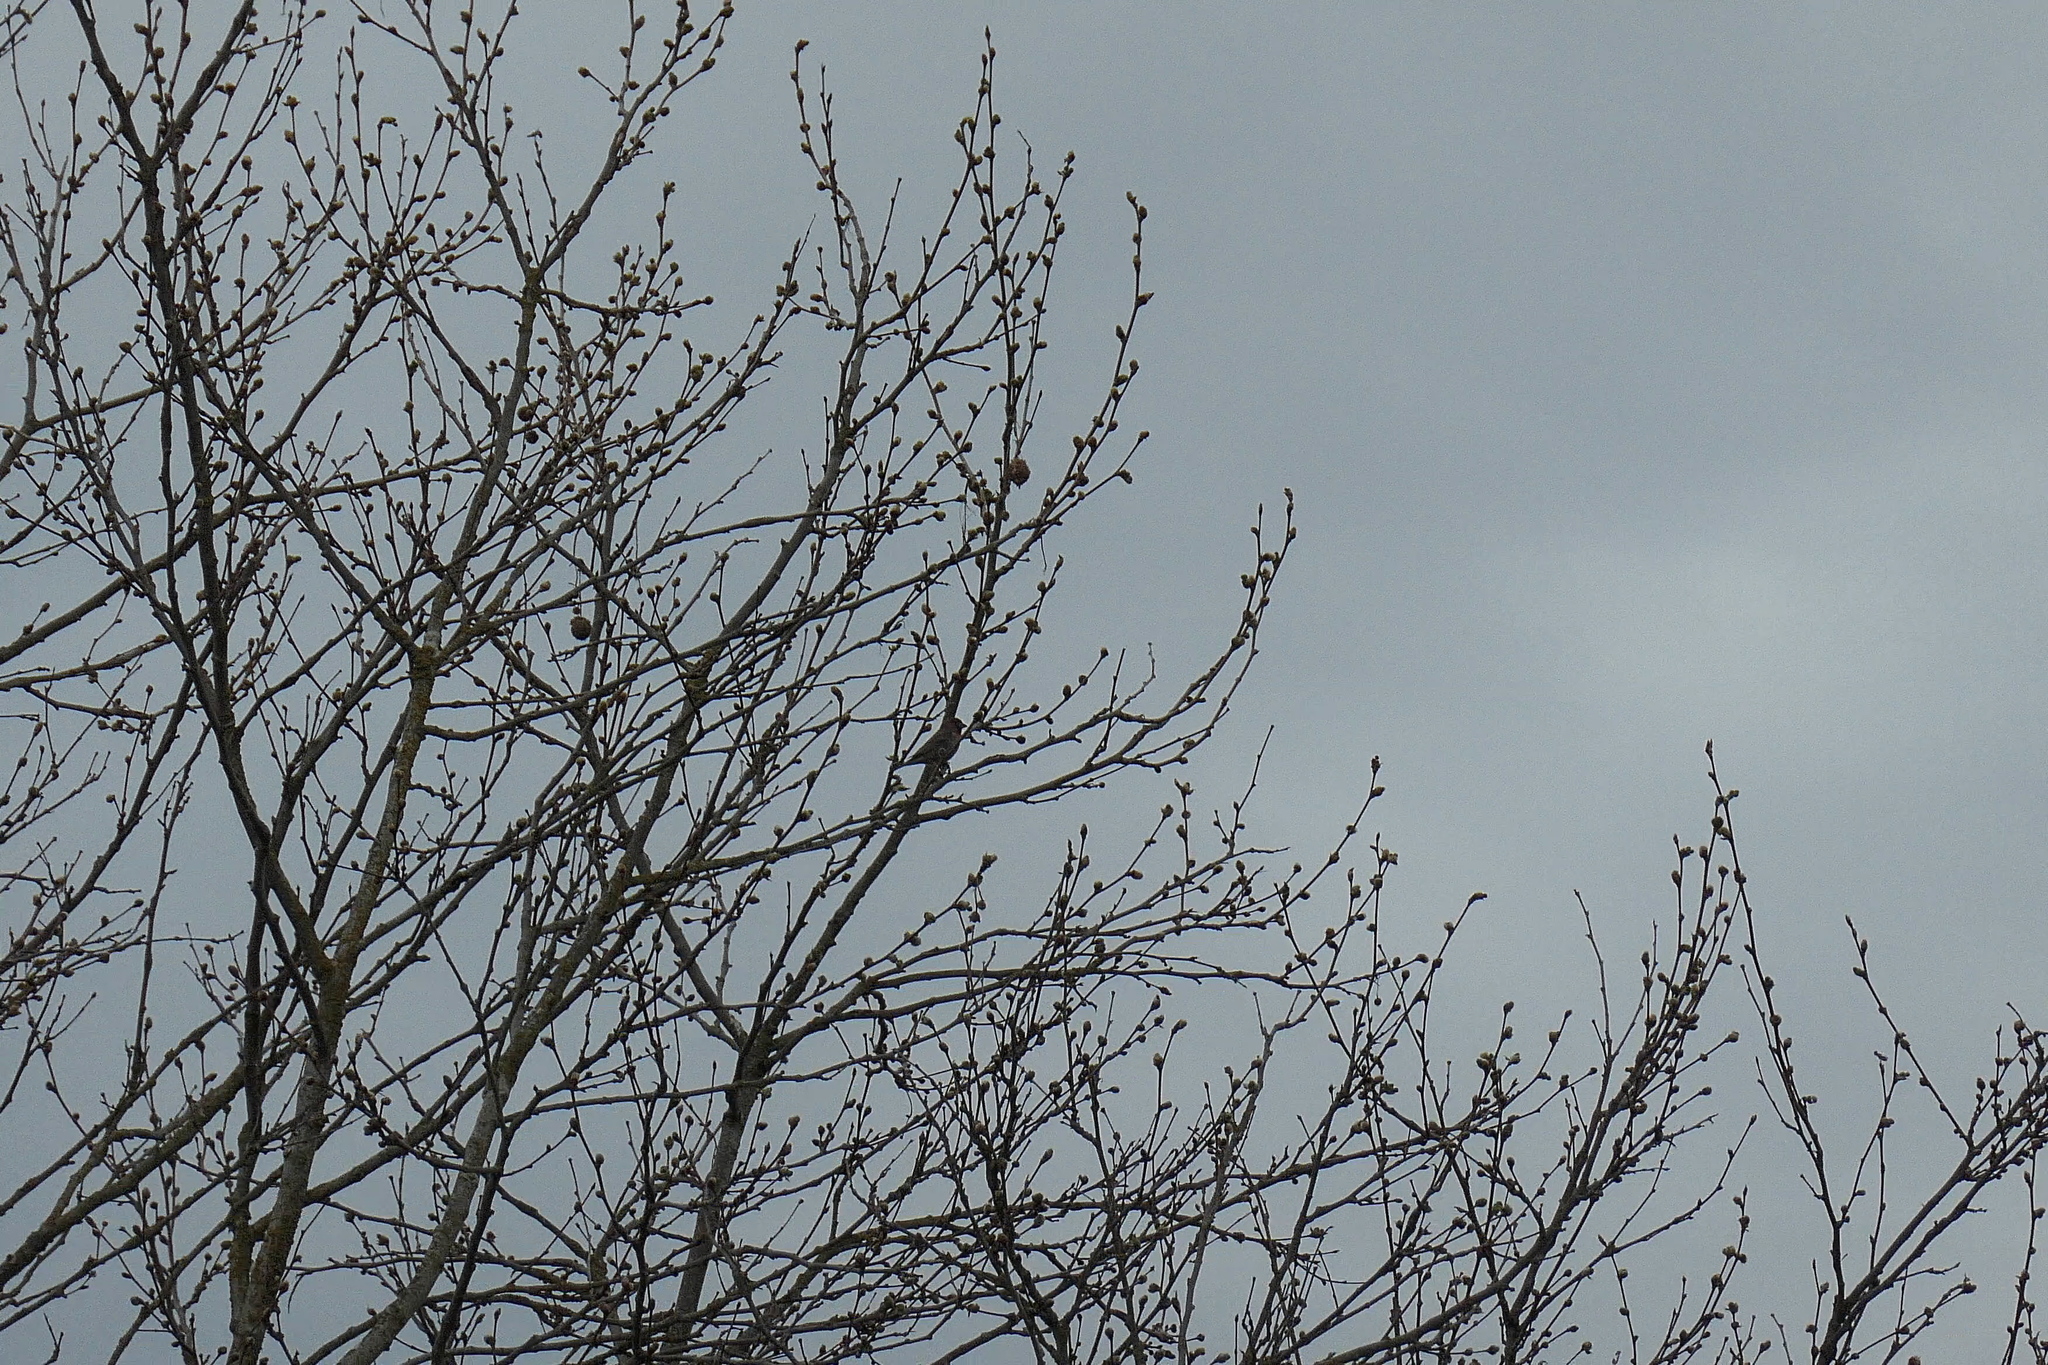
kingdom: Animalia
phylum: Chordata
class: Aves
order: Passeriformes
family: Fringillidae
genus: Haemorhous
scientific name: Haemorhous mexicanus
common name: House finch
